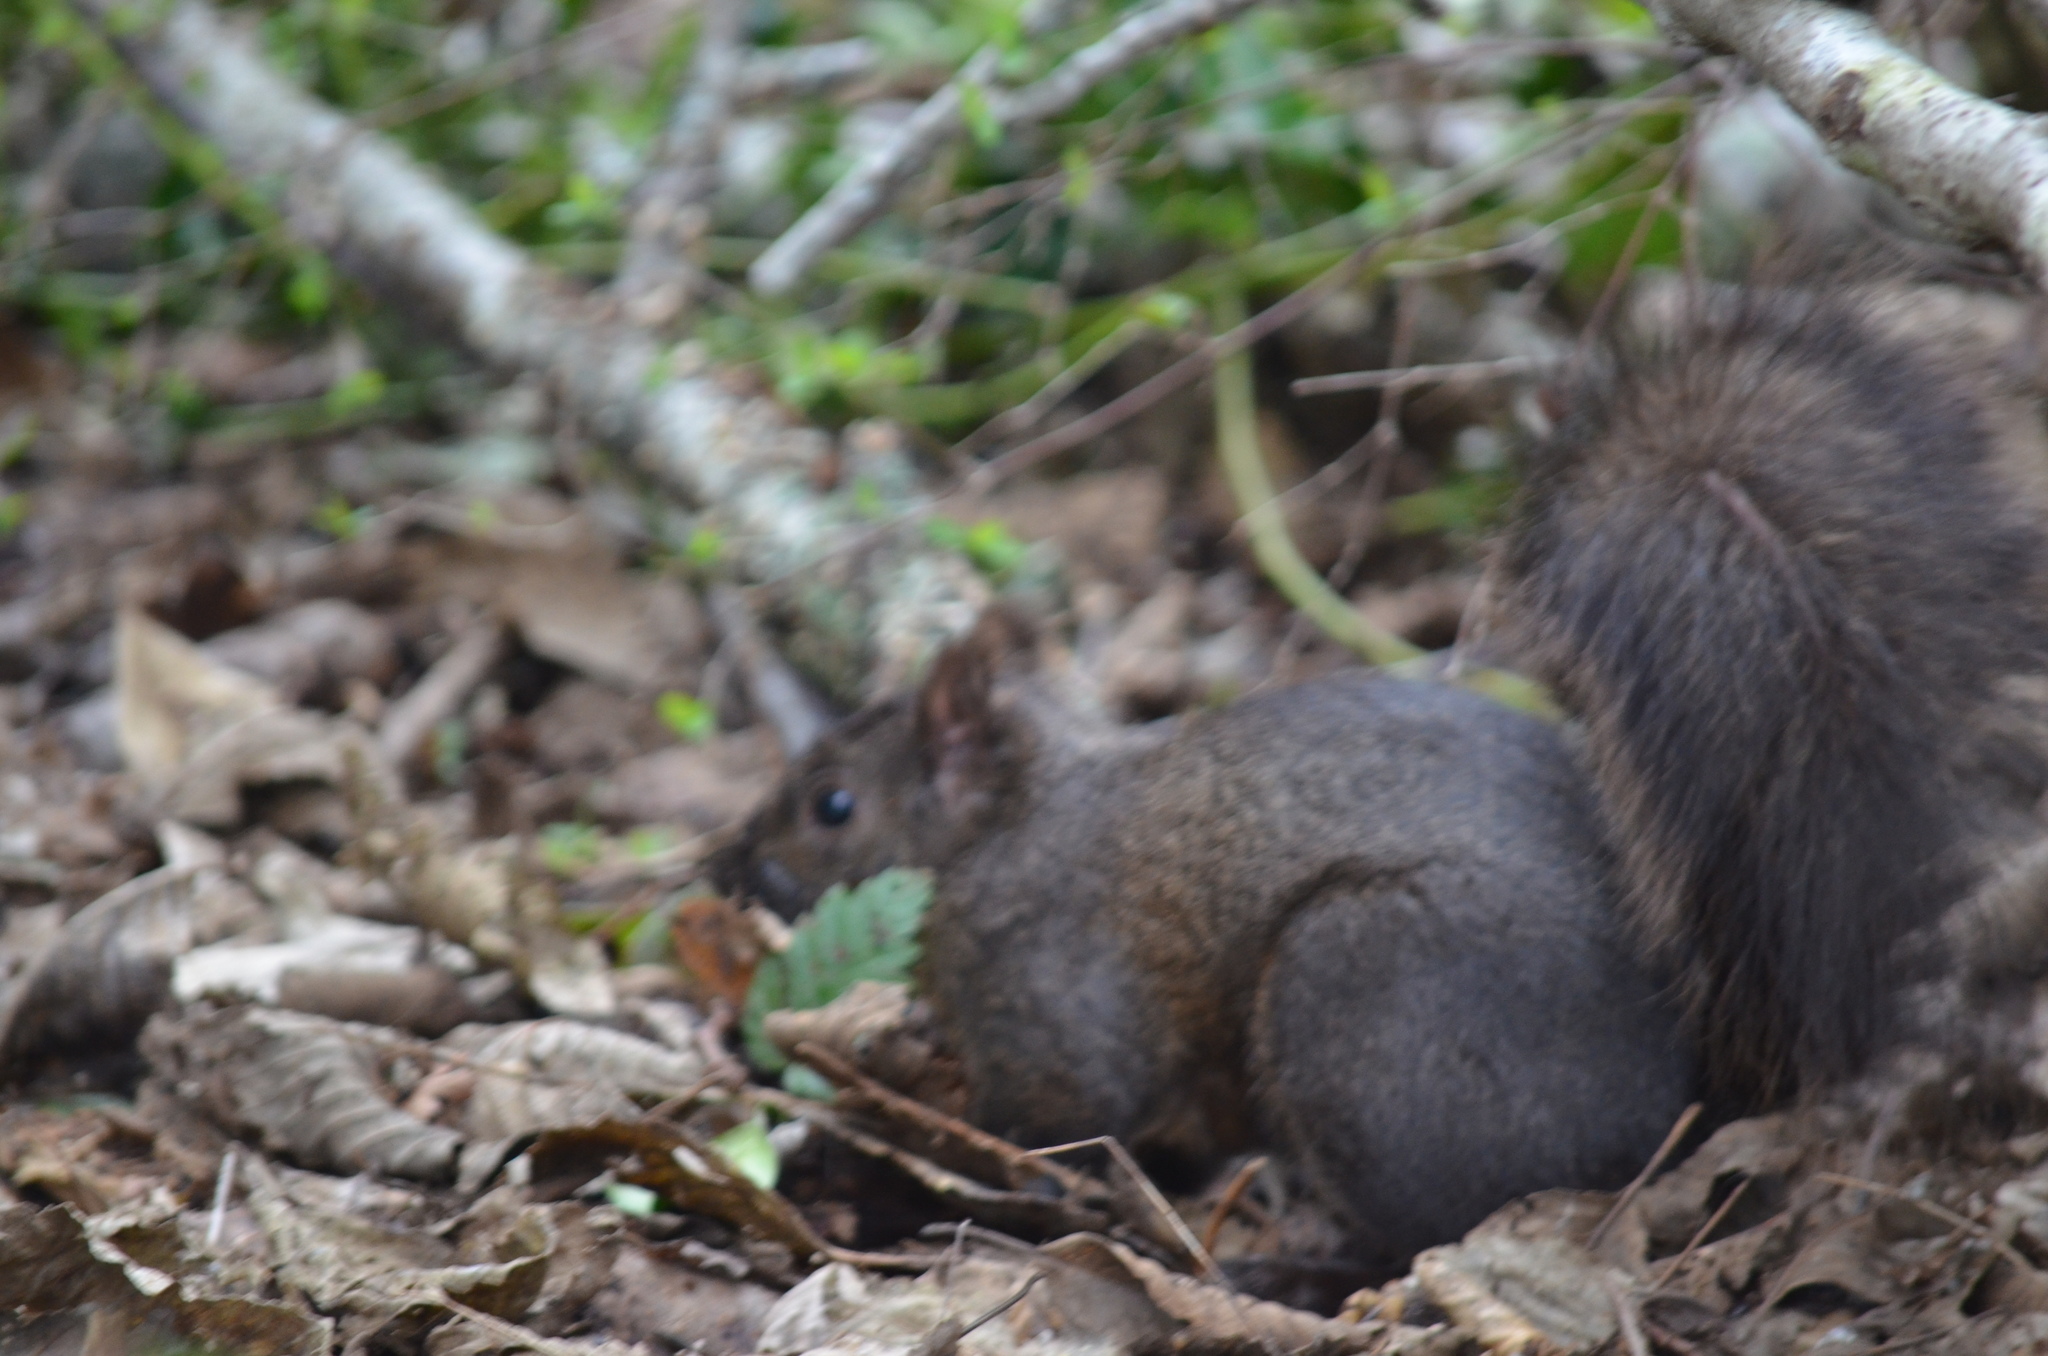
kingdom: Animalia
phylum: Chordata
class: Mammalia
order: Rodentia
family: Sciuridae
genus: Sciurus
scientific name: Sciurus carolinensis
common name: Eastern gray squirrel
